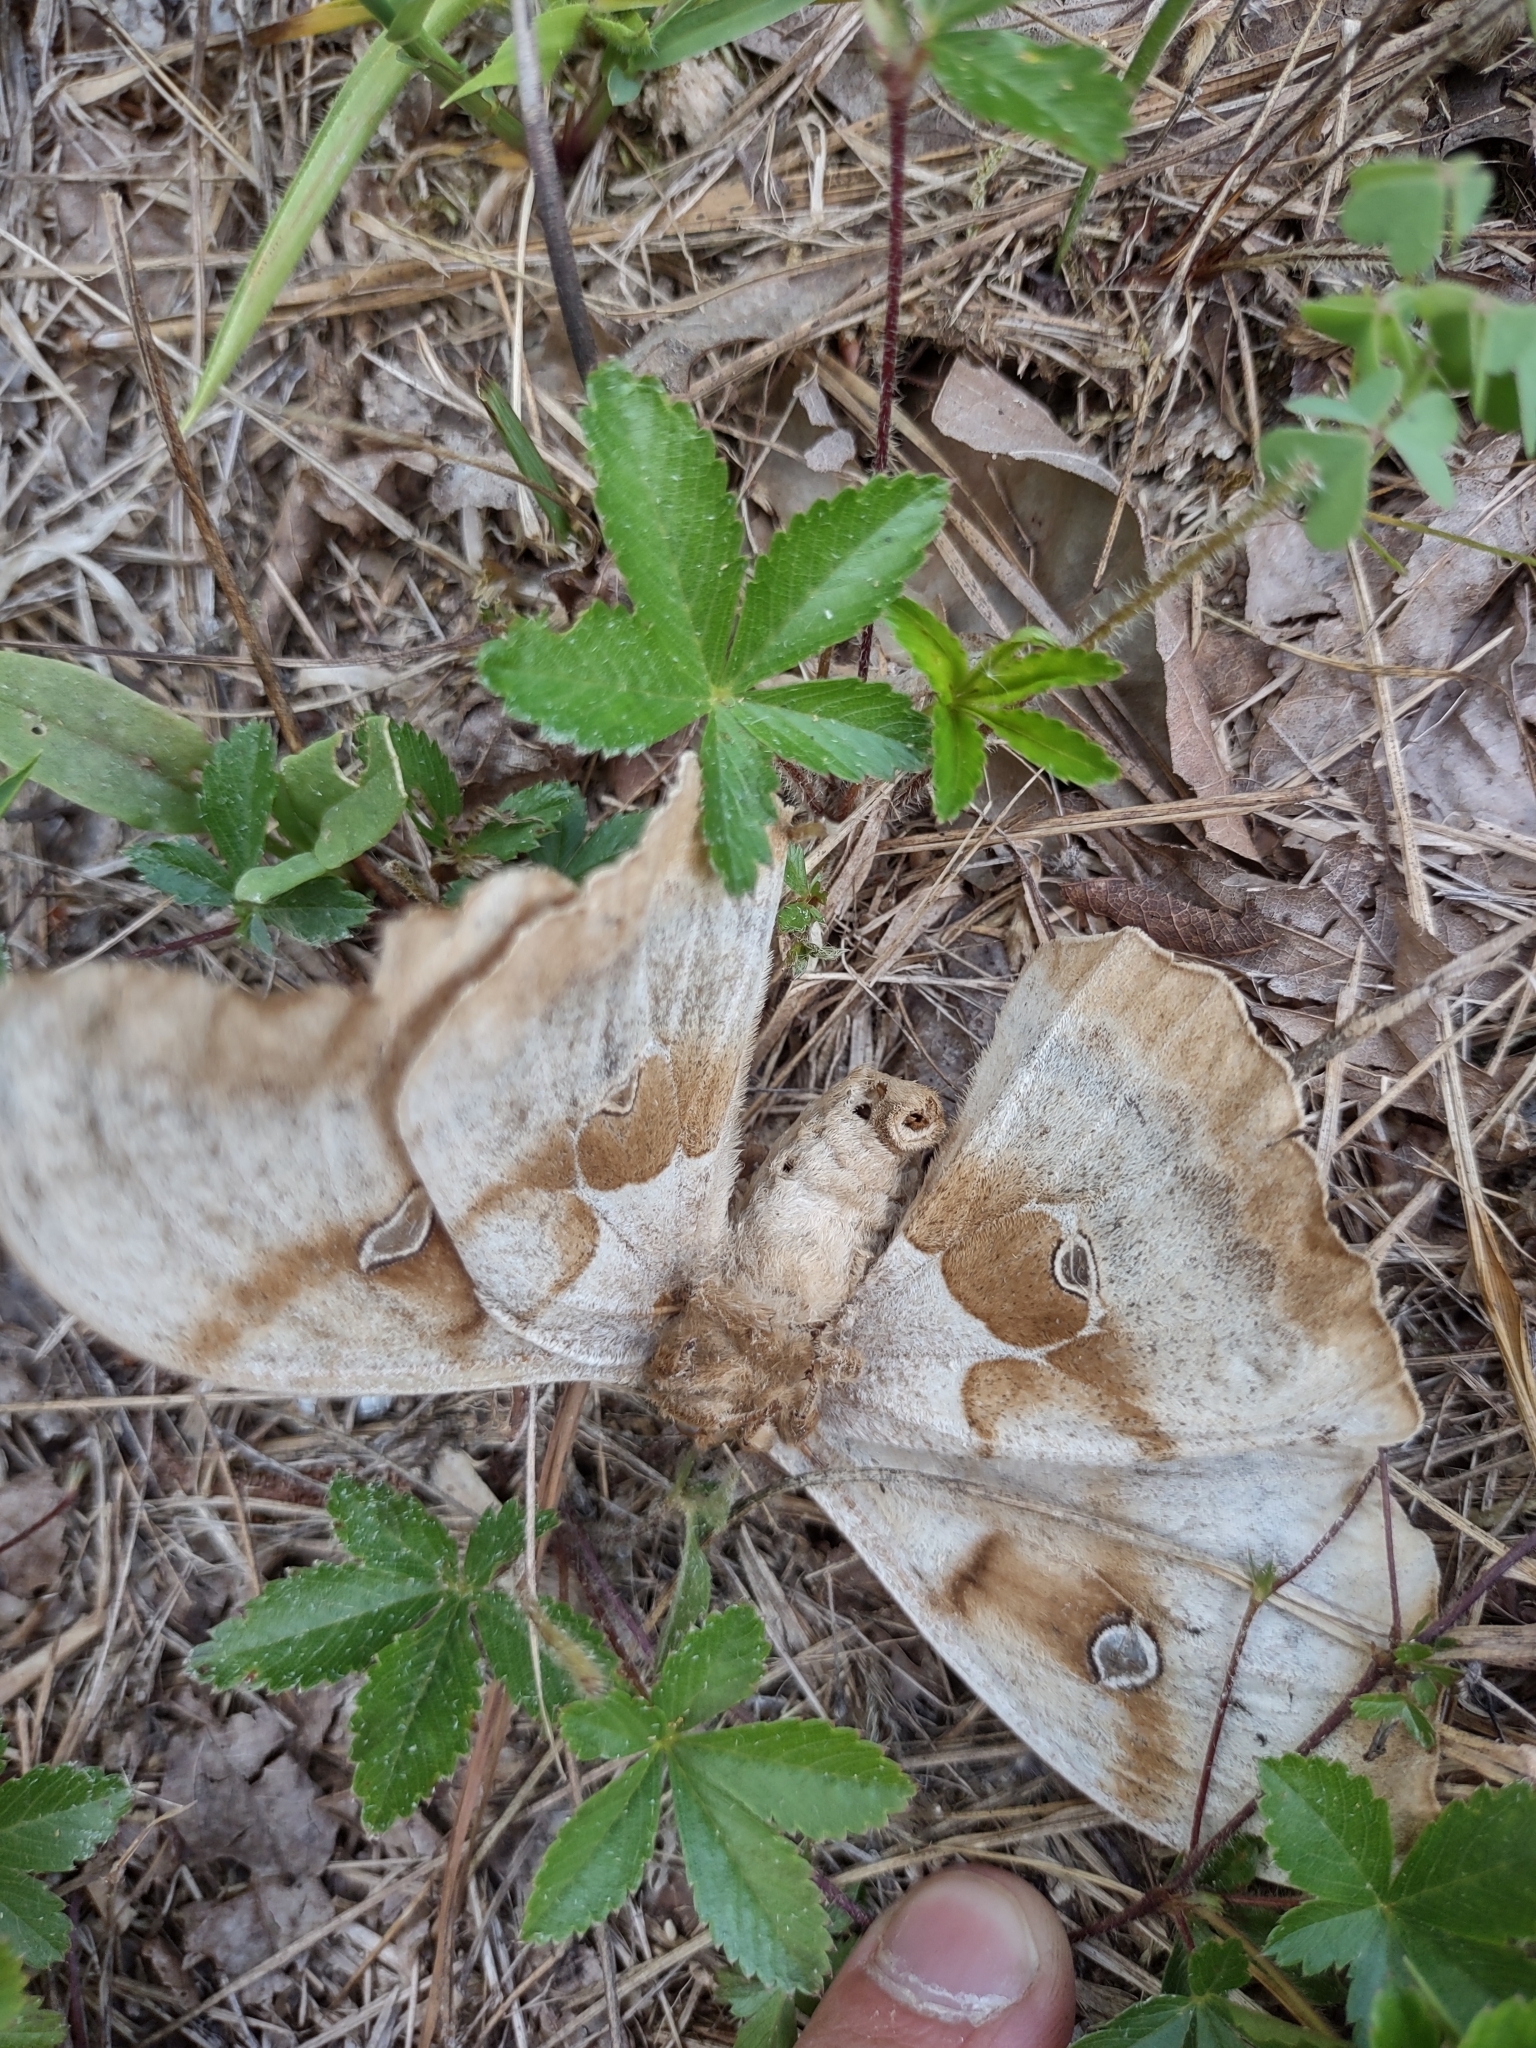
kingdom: Animalia
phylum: Arthropoda
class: Insecta
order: Lepidoptera
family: Saturniidae
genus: Antheraea
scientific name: Antheraea polyphemus
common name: Polyphemus moth
